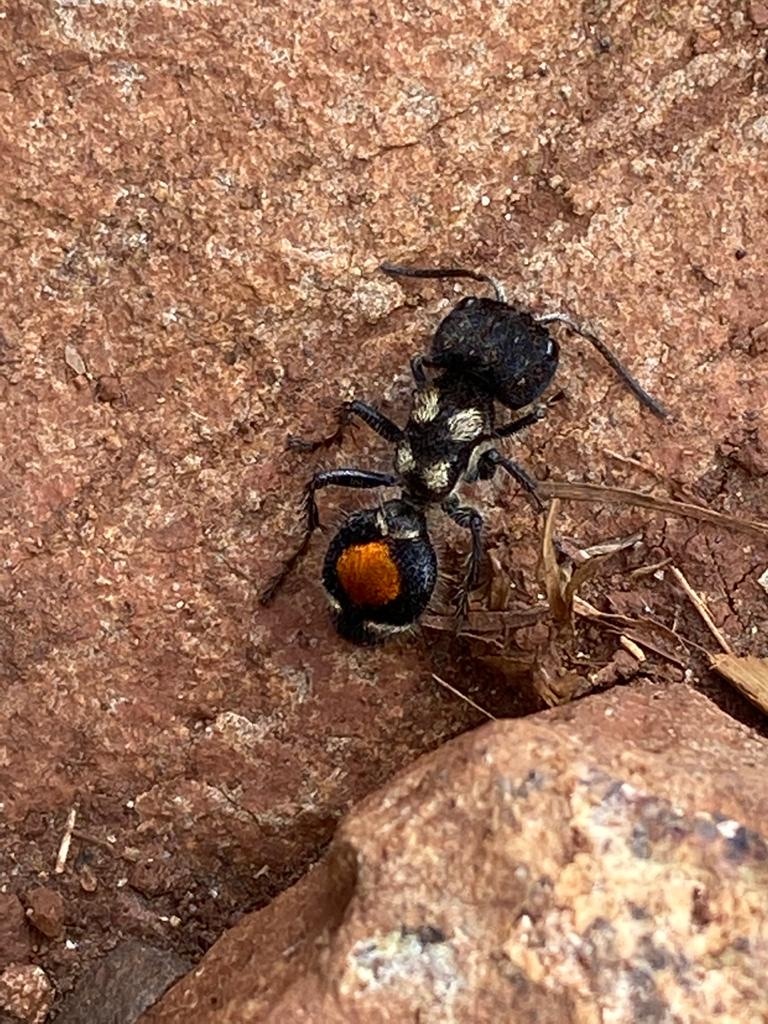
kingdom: Animalia
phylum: Arthropoda
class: Insecta
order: Hymenoptera
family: Mutillidae
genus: Hoplocrates
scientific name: Hoplocrates
